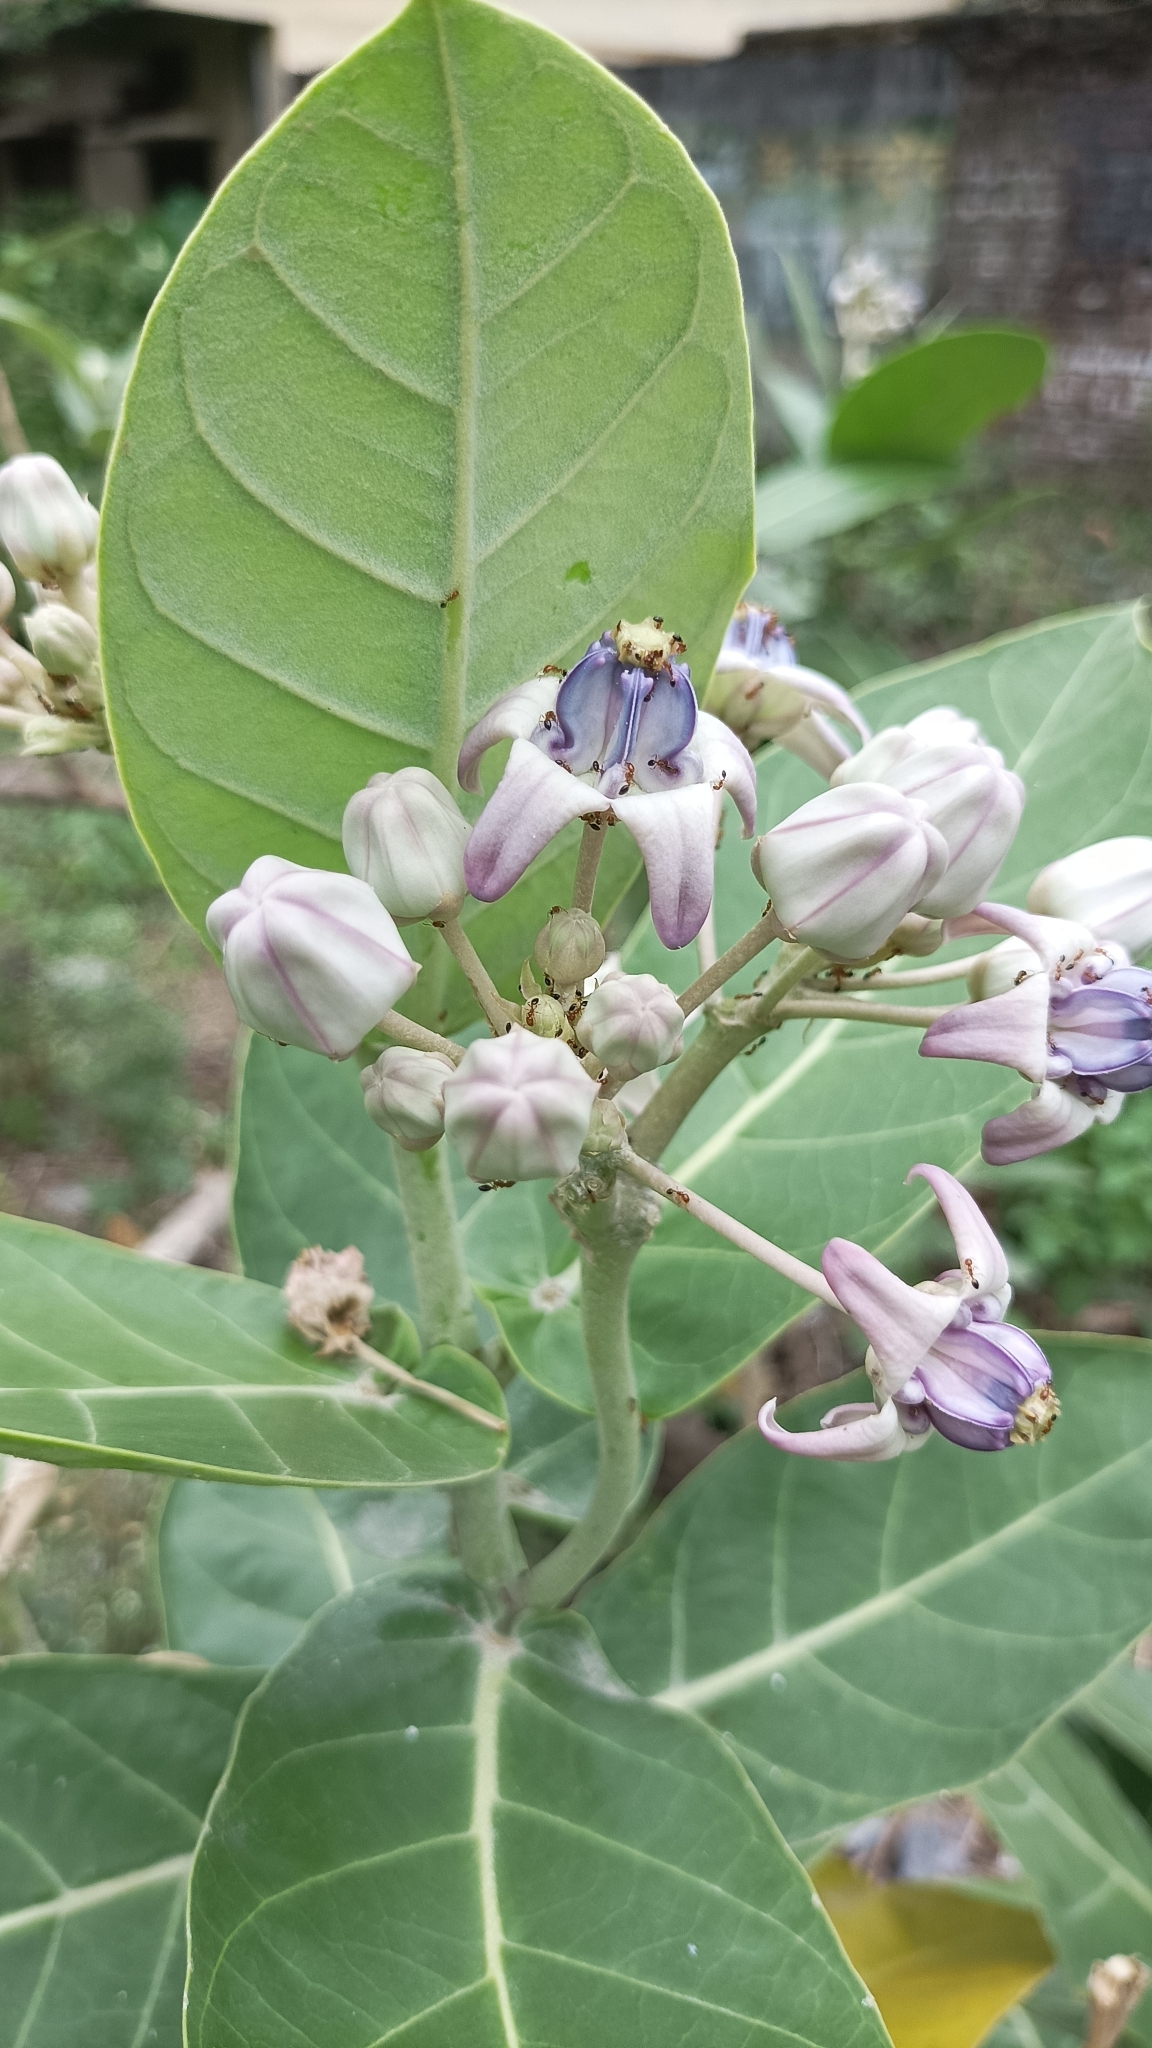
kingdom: Plantae
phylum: Tracheophyta
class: Magnoliopsida
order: Gentianales
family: Apocynaceae
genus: Calotropis
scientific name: Calotropis gigantea
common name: Crown flower
